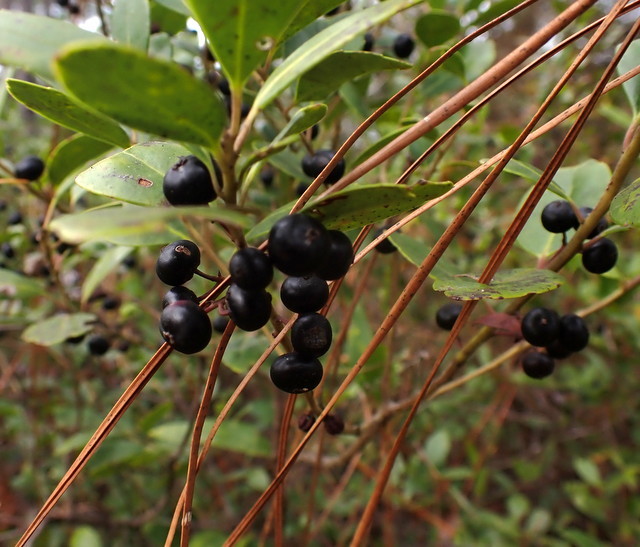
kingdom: Plantae
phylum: Tracheophyta
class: Magnoliopsida
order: Aquifoliales
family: Aquifoliaceae
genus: Ilex
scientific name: Ilex glabra
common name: Bitter gallberry
